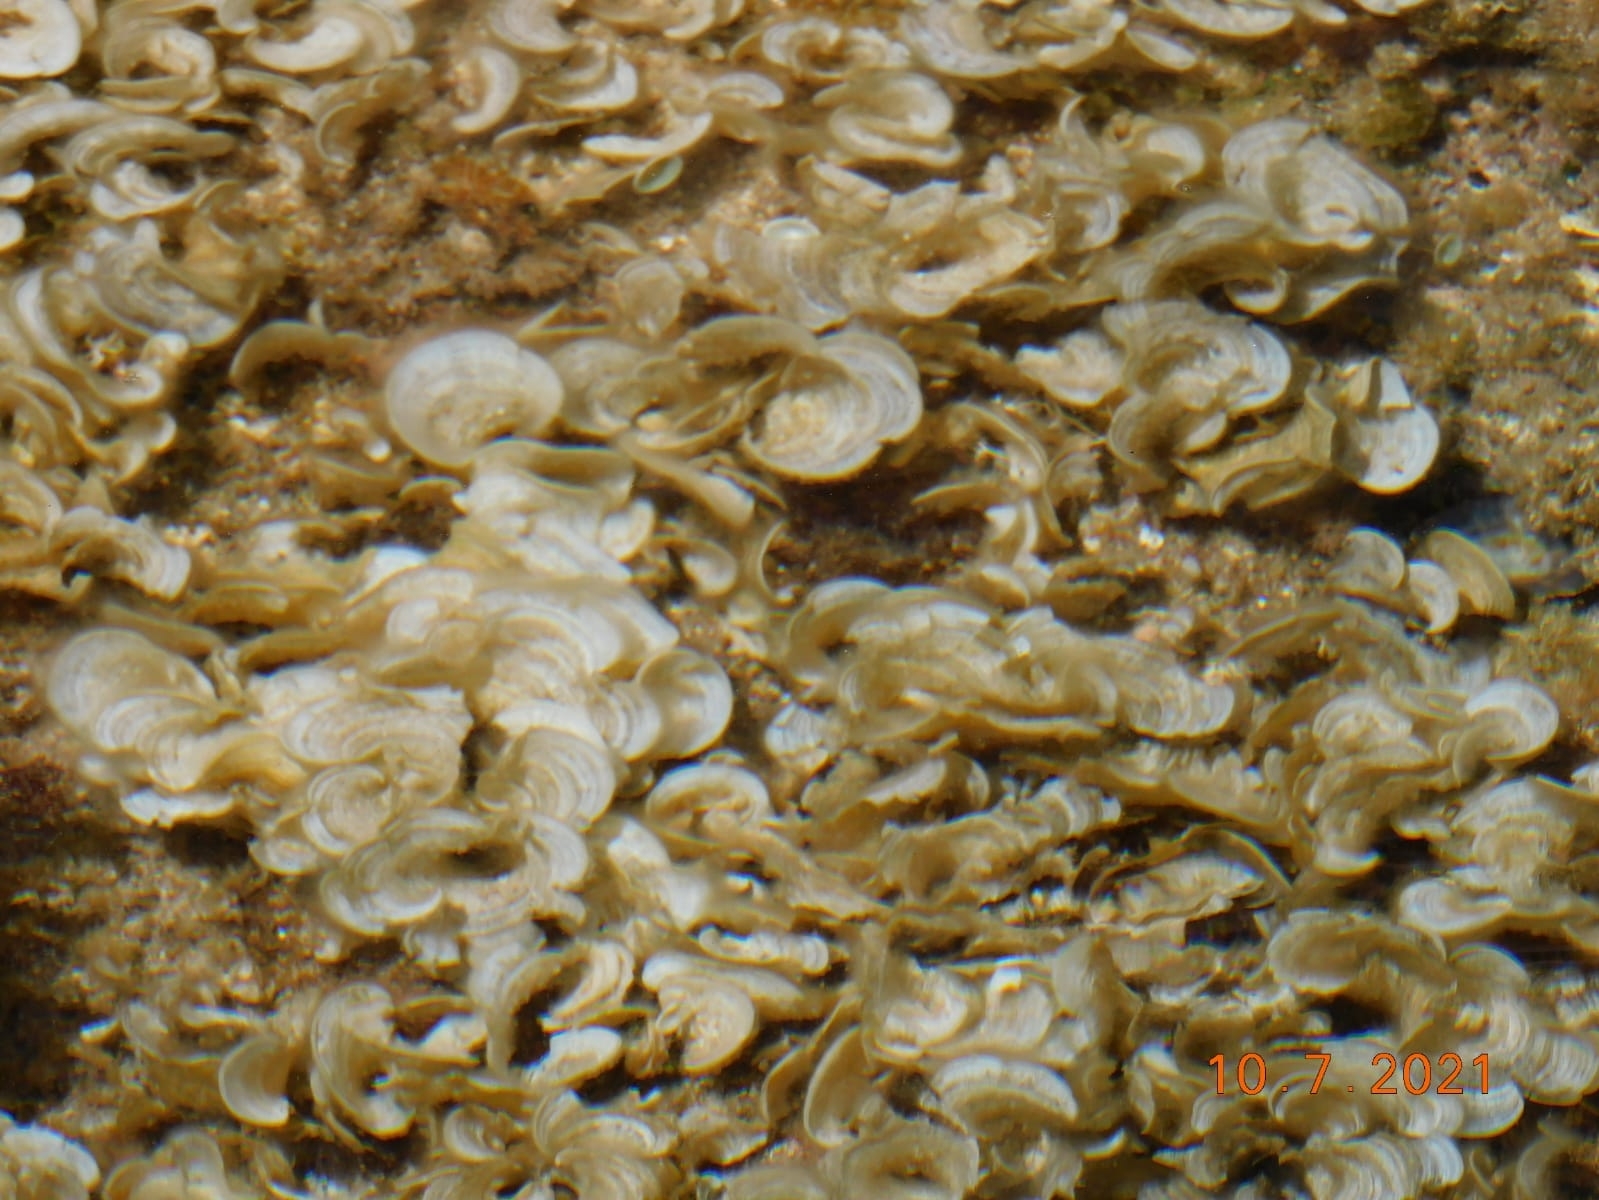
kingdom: Chromista
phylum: Ochrophyta
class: Phaeophyceae
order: Dictyotales
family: Dictyotaceae
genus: Padina
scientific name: Padina pavonica
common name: Turkey feather alga
